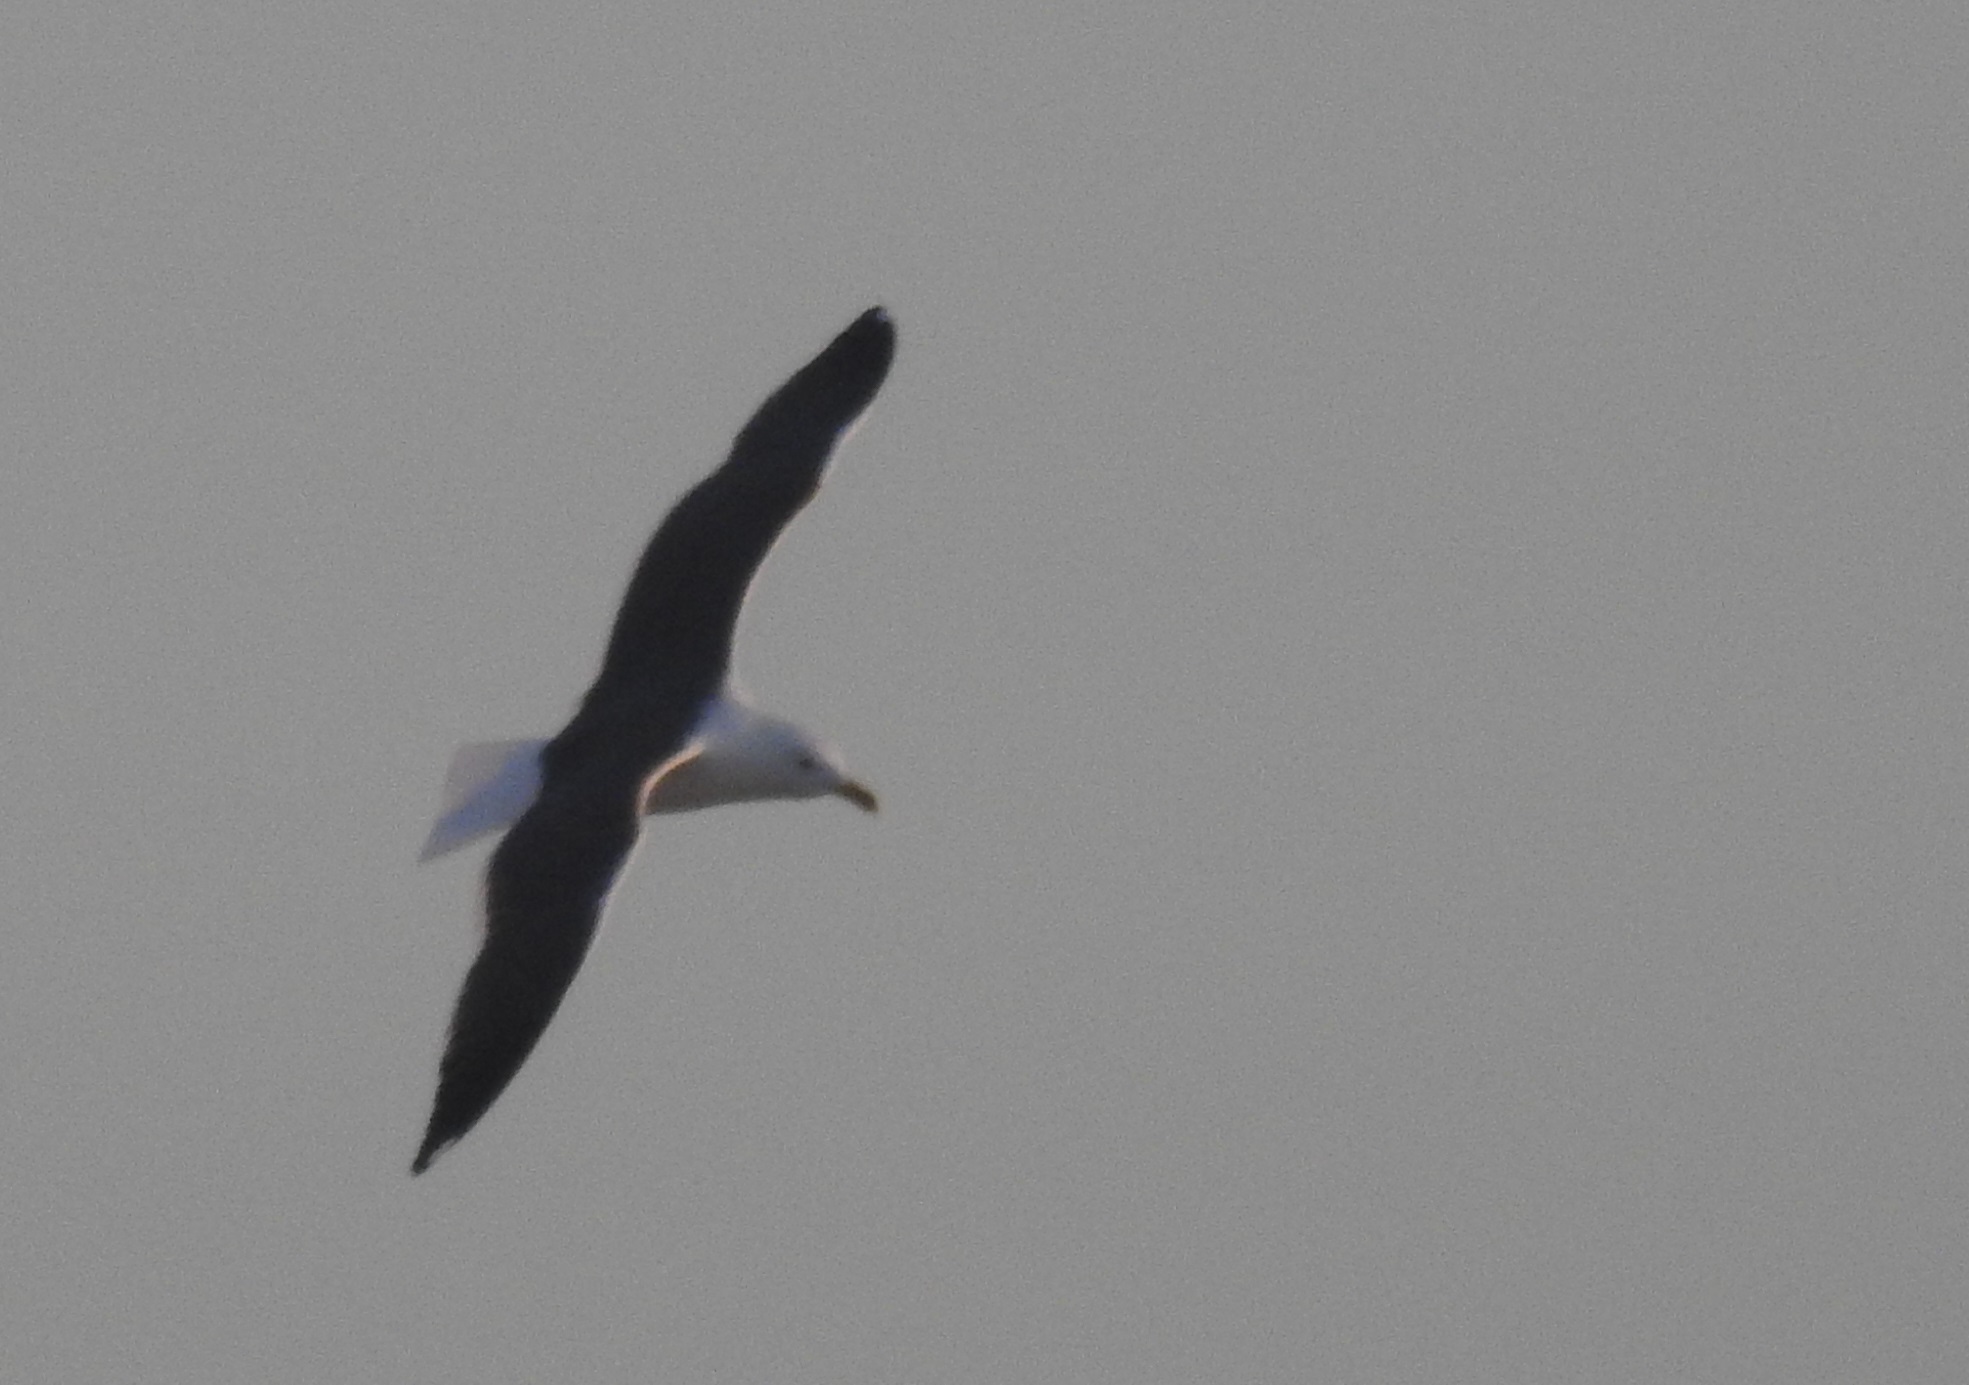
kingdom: Animalia
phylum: Chordata
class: Aves
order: Charadriiformes
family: Laridae
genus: Larus
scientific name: Larus fuscus
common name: Lesser black-backed gull
